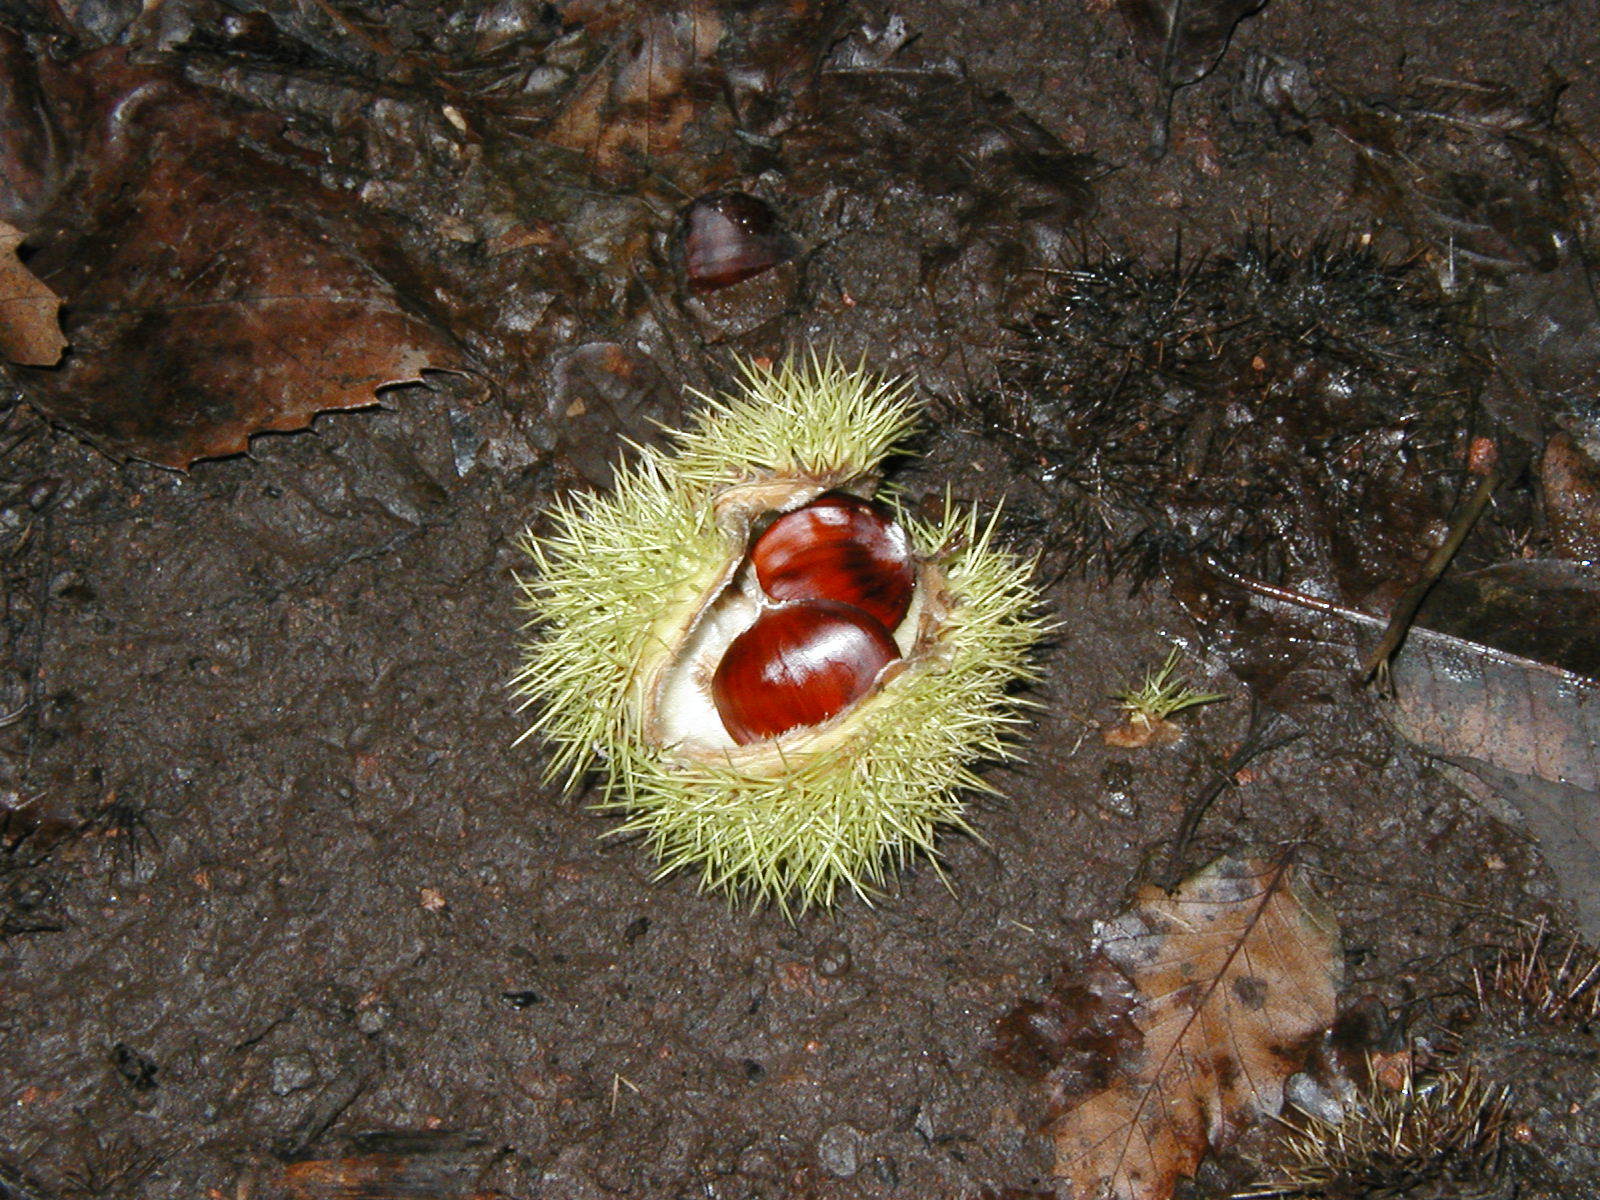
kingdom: Plantae
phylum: Tracheophyta
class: Magnoliopsida
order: Fagales
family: Fagaceae
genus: Castanea
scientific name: Castanea sativa
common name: Sweet chestnut
